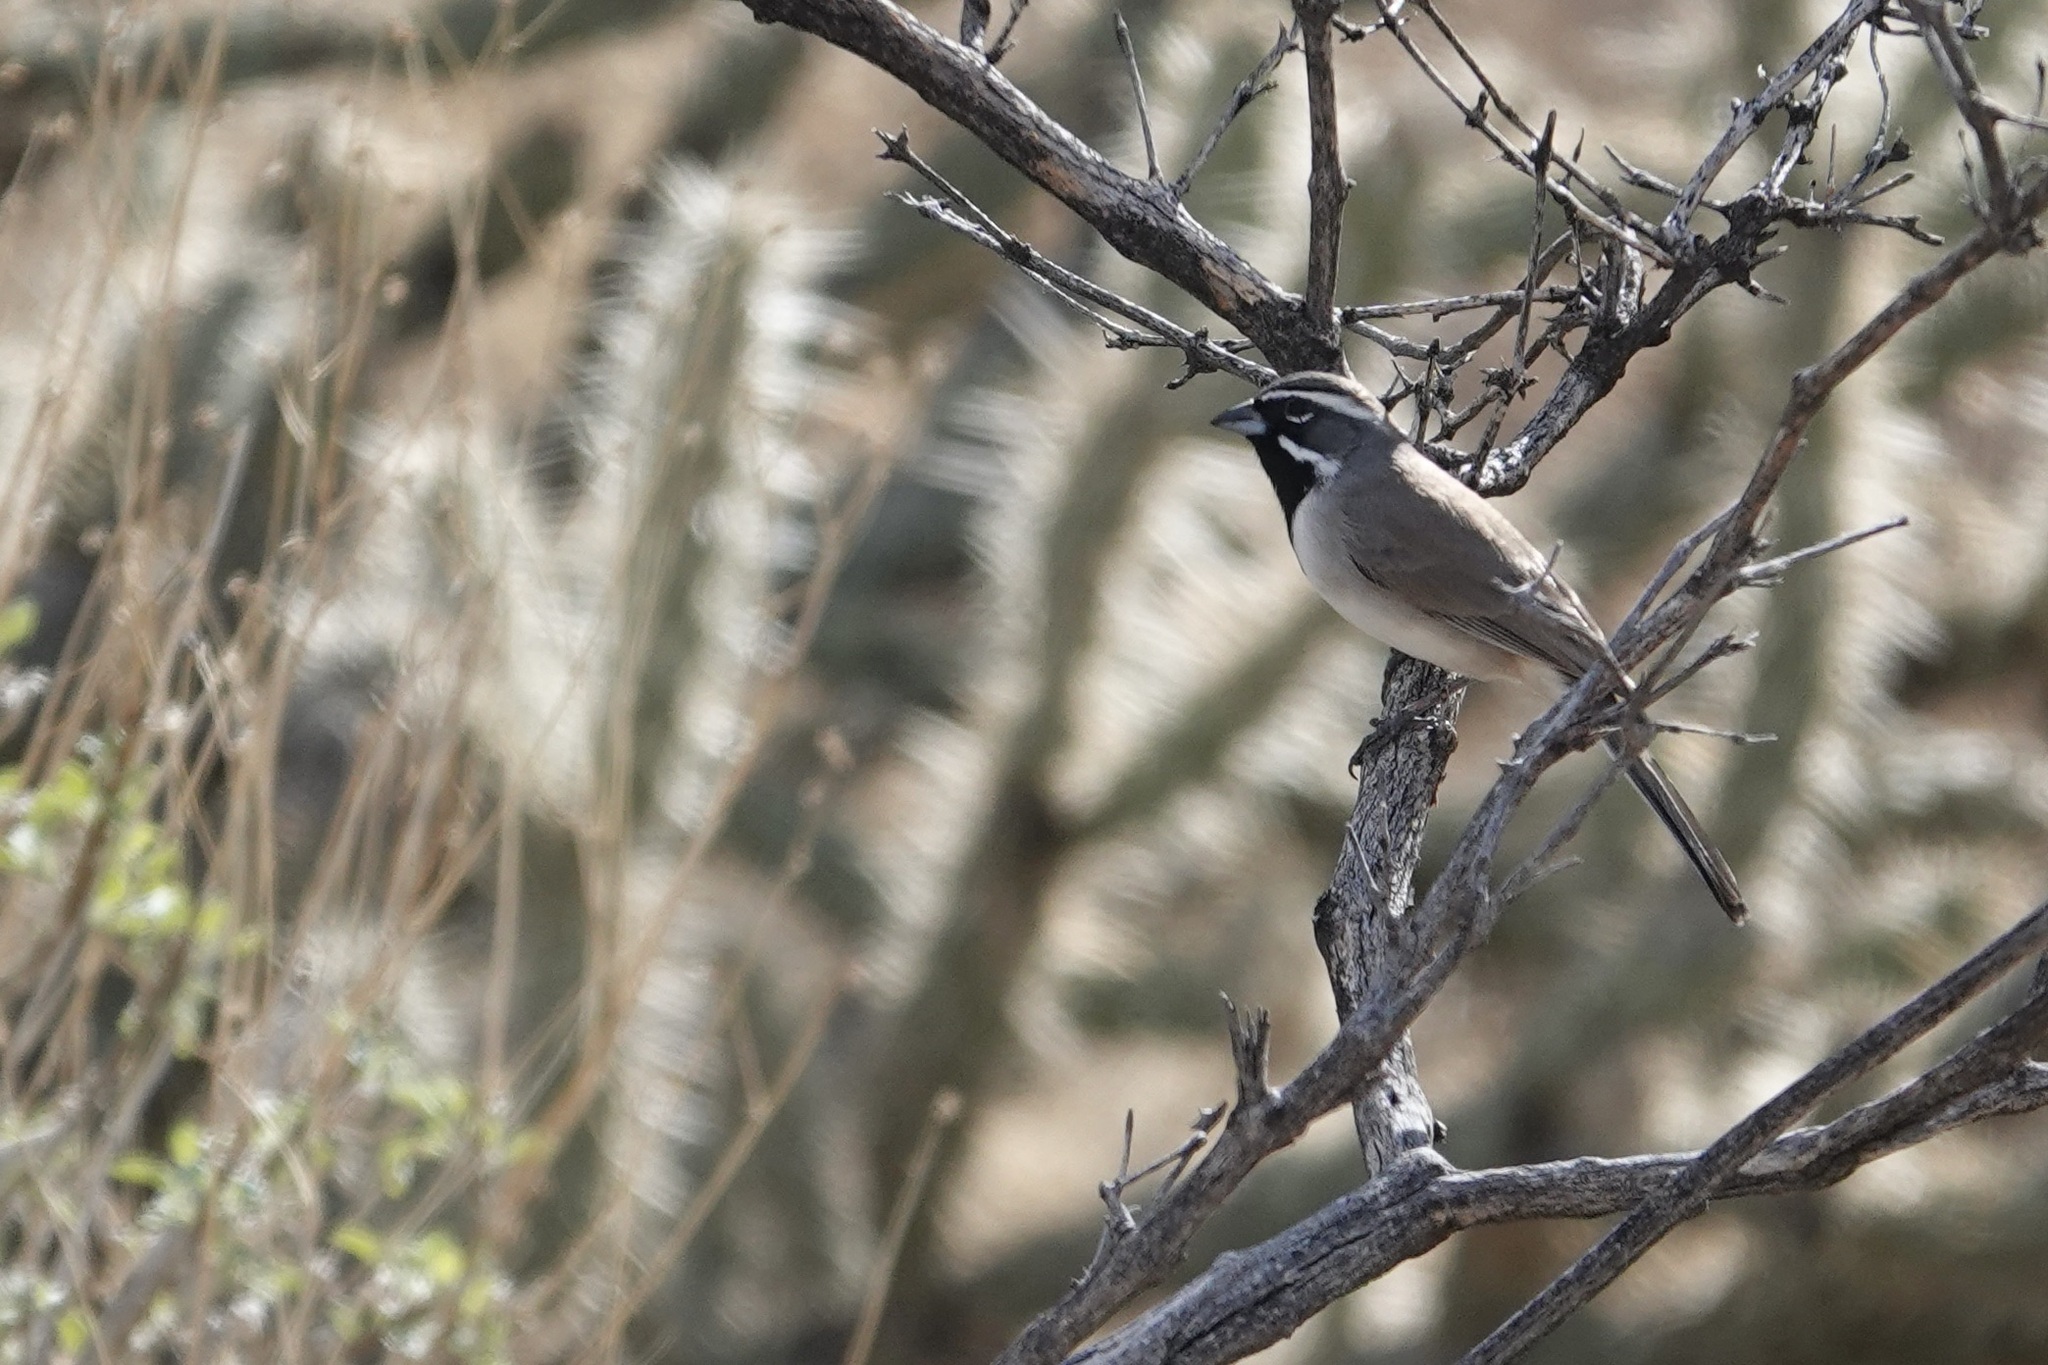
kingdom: Animalia
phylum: Chordata
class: Aves
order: Passeriformes
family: Passerellidae
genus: Amphispiza
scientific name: Amphispiza bilineata
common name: Black-throated sparrow
